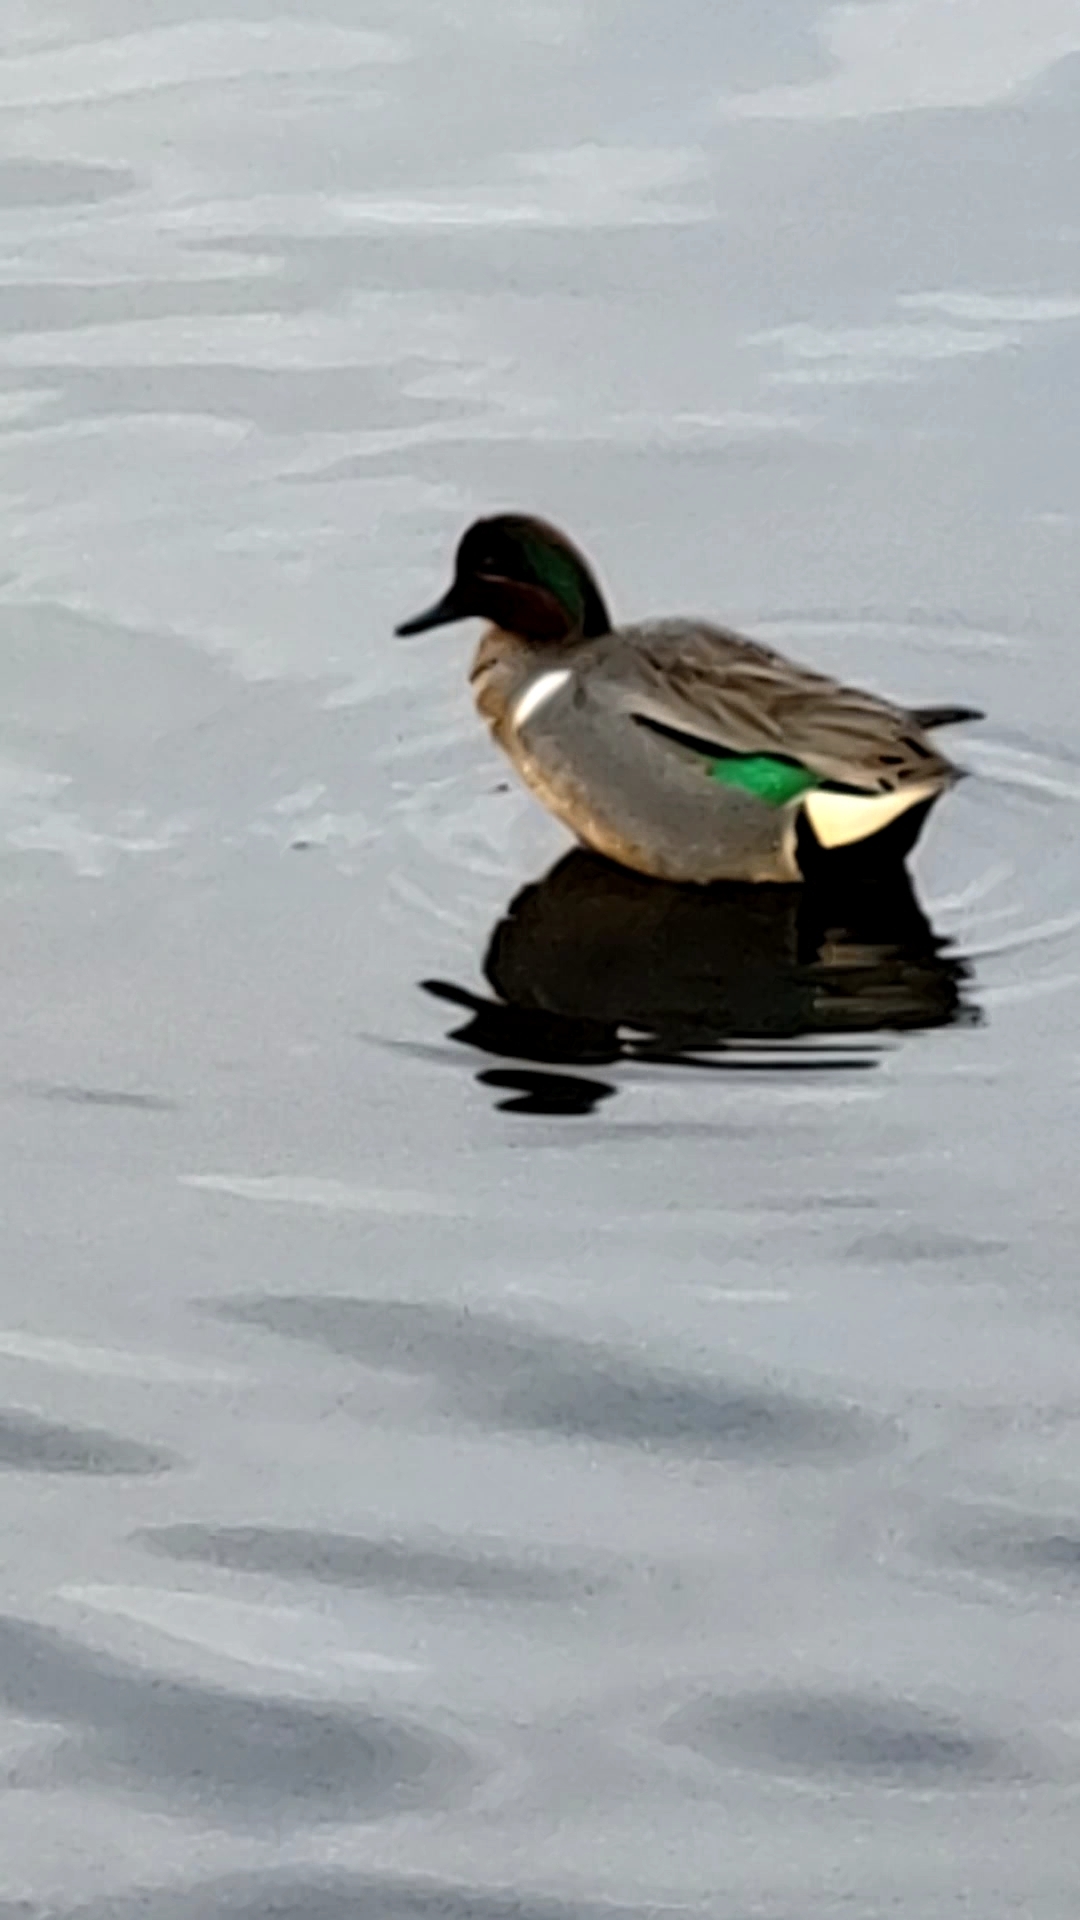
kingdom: Animalia
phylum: Chordata
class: Aves
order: Anseriformes
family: Anatidae
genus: Anas
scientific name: Anas crecca
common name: Eurasian teal
